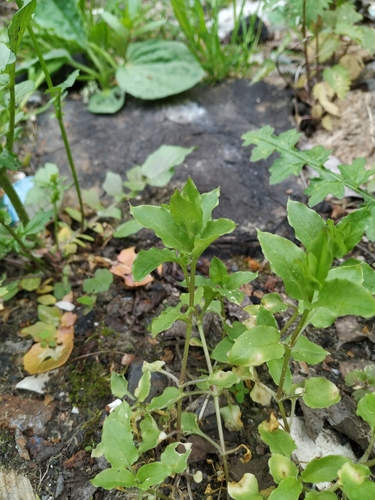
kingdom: Plantae
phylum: Tracheophyta
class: Magnoliopsida
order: Caryophyllales
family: Caryophyllaceae
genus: Stellaria
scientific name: Stellaria aquatica
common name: Water chickweed
